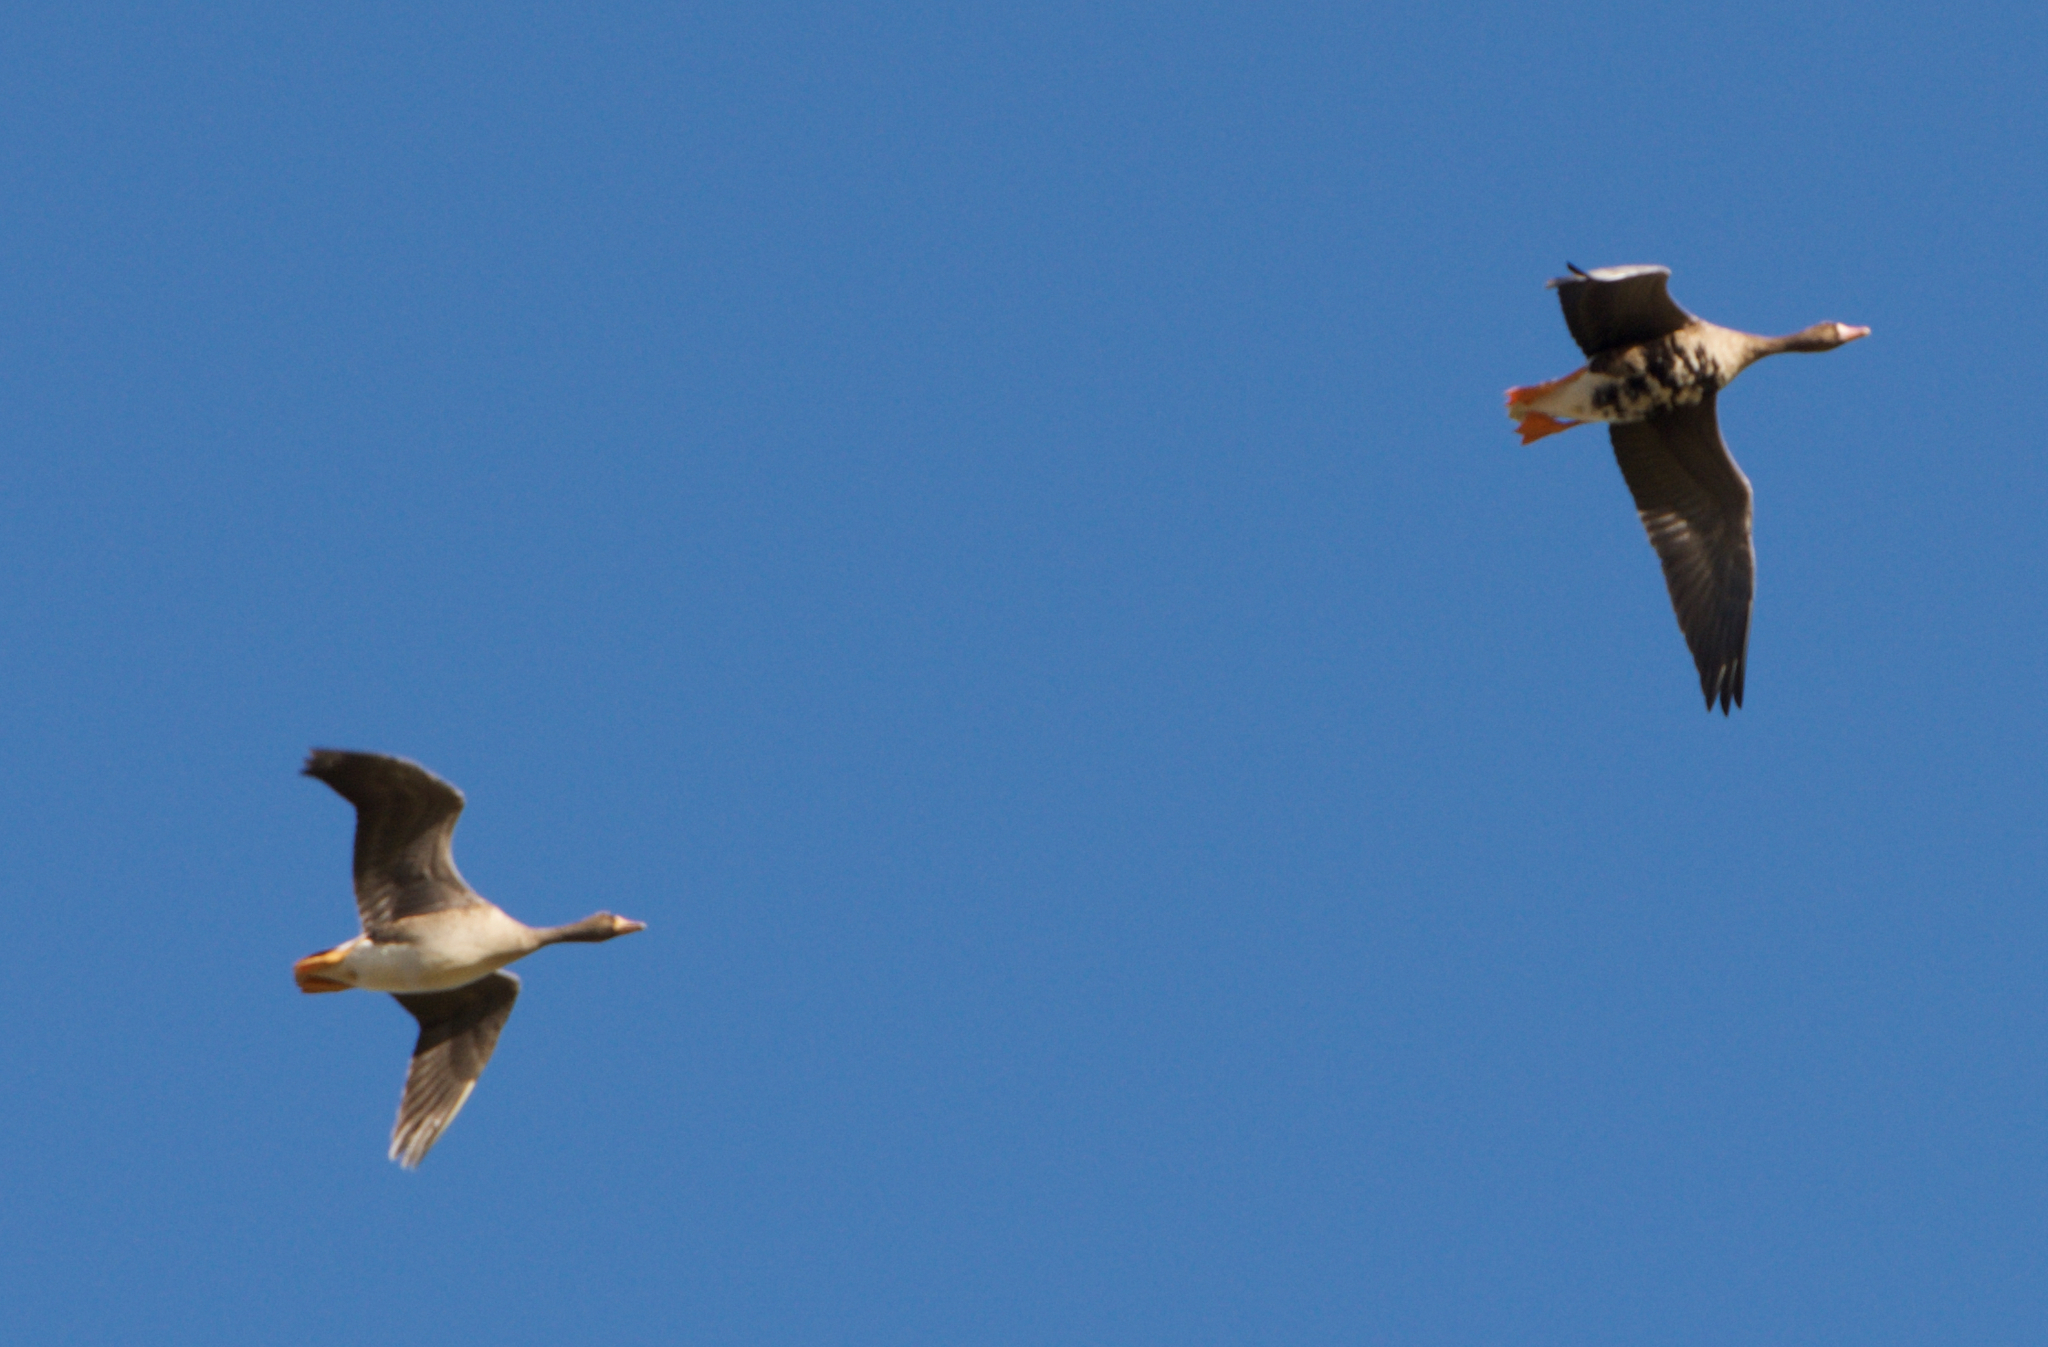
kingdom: Animalia
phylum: Chordata
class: Aves
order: Anseriformes
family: Anatidae
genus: Anser
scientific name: Anser albifrons
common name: Greater white-fronted goose
